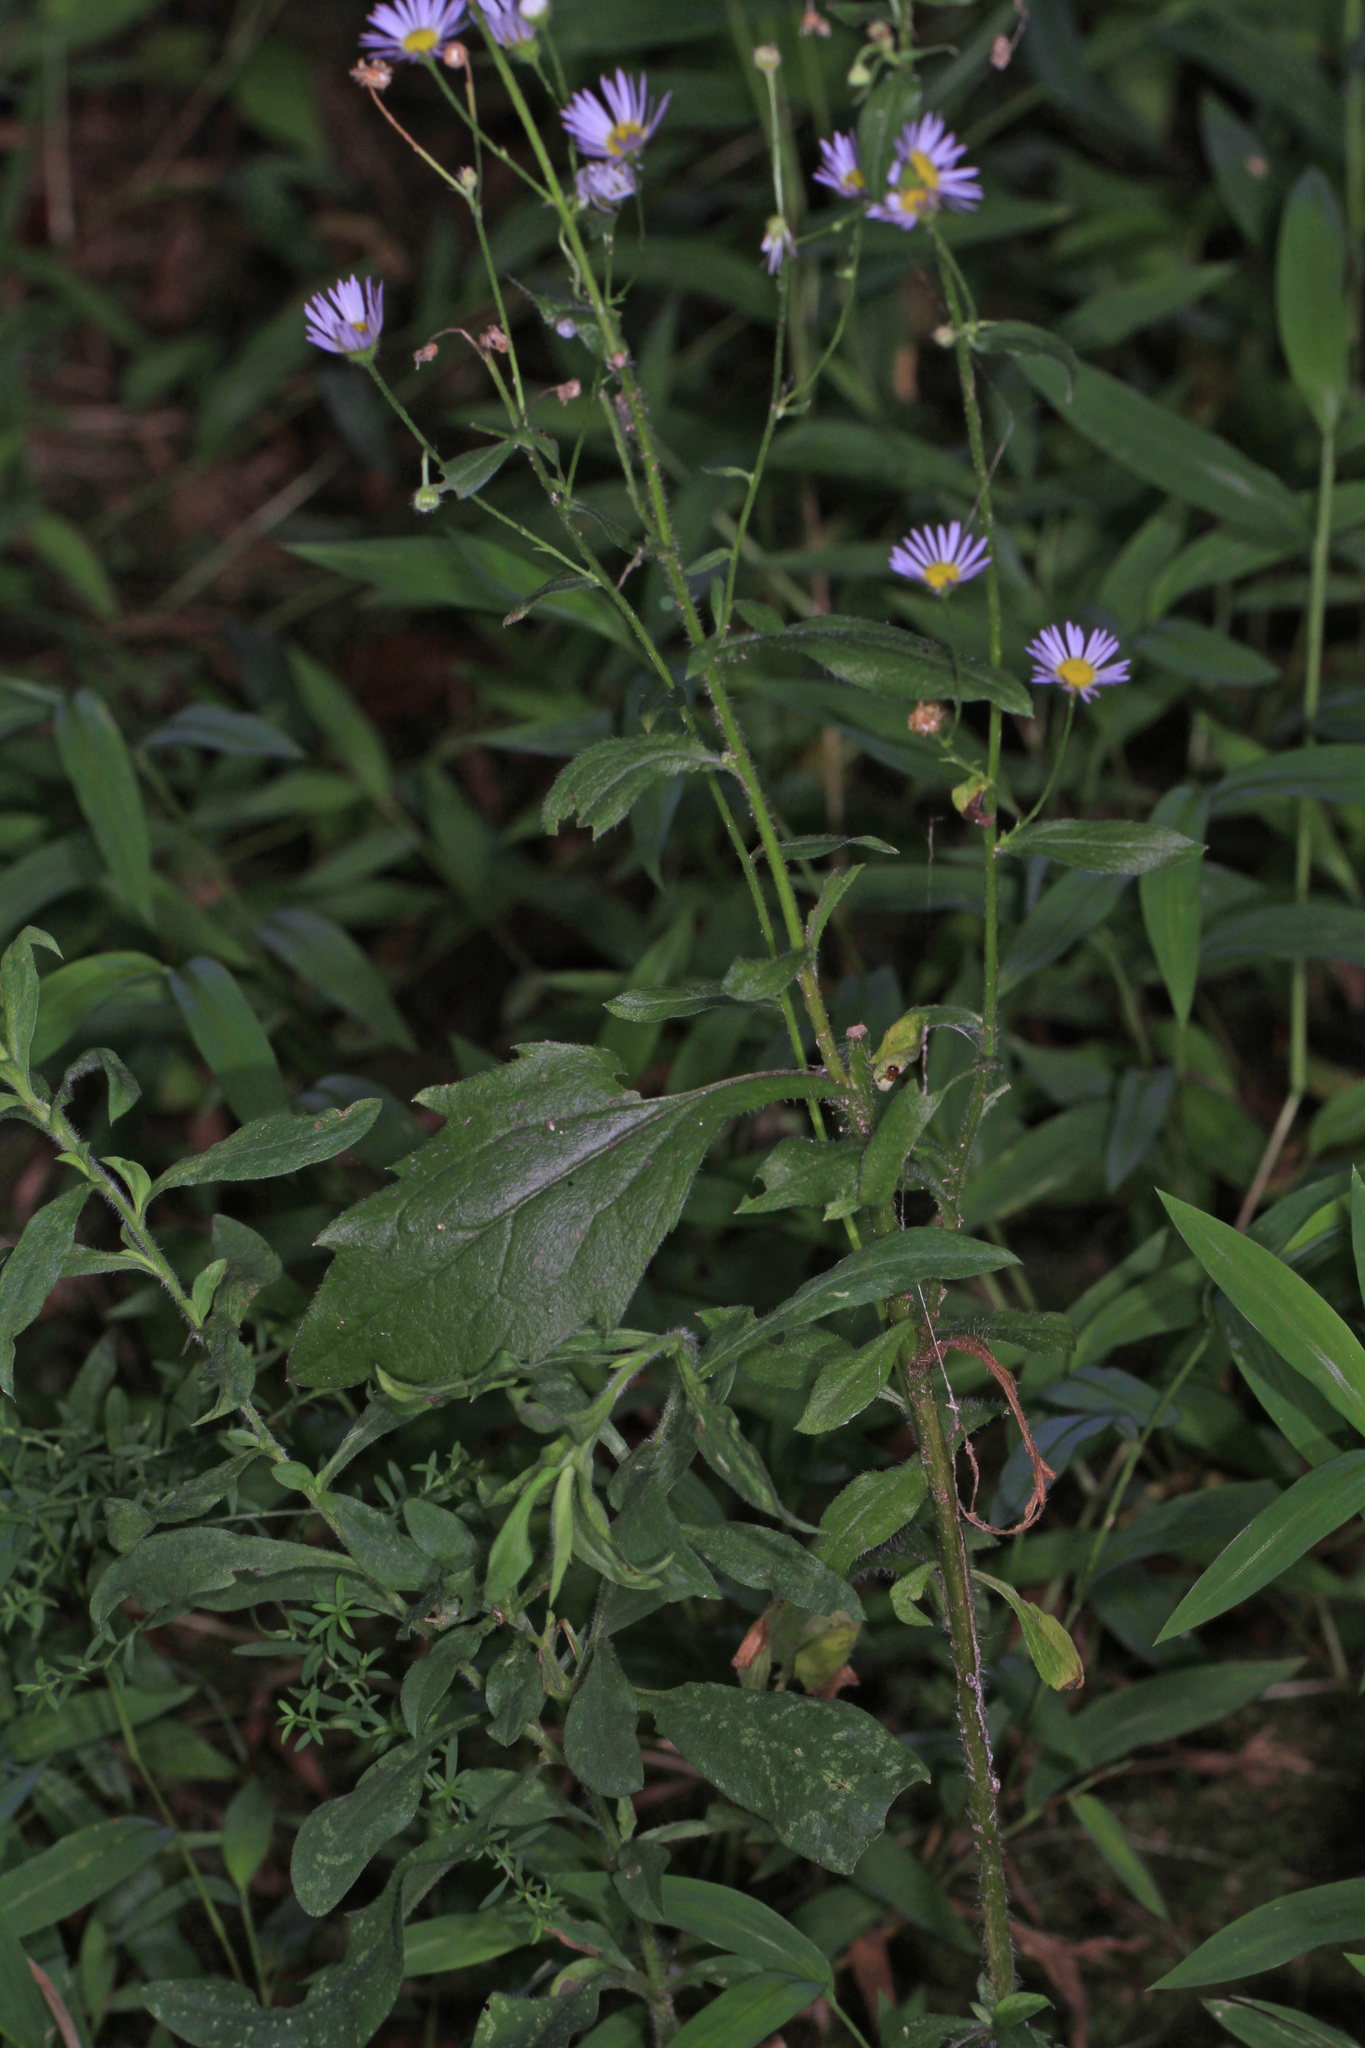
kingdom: Plantae
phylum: Tracheophyta
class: Magnoliopsida
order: Asterales
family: Asteraceae
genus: Erigeron
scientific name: Erigeron annuus
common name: Tall fleabane
